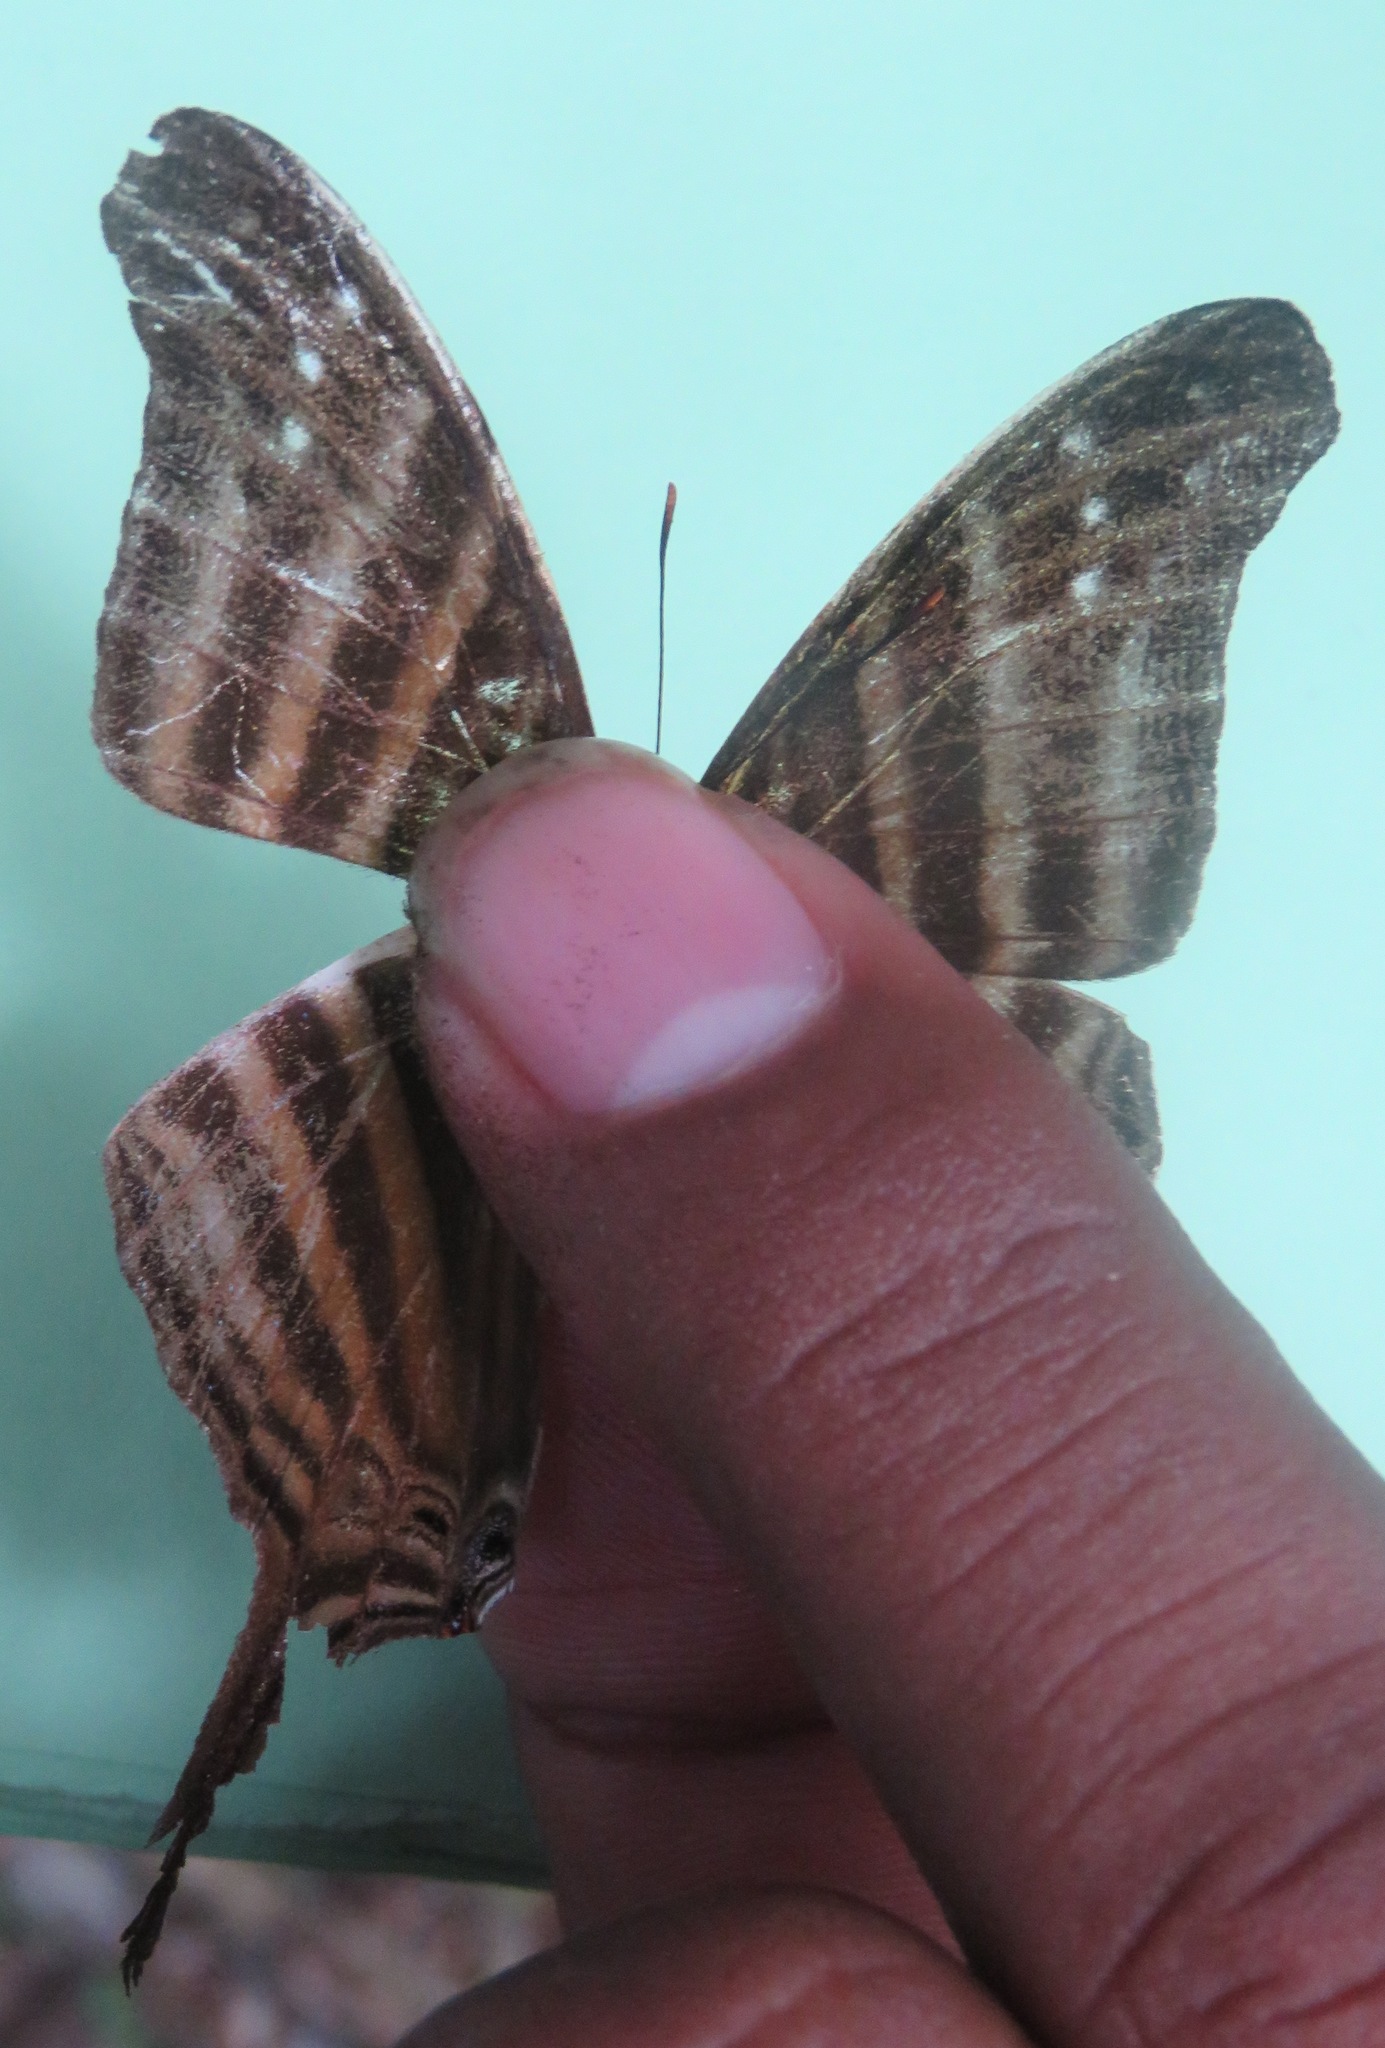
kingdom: Animalia
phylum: Arthropoda
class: Insecta
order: Lepidoptera
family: Nymphalidae
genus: Marpesia
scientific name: Marpesia chiron
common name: Many-banded daggerwing
